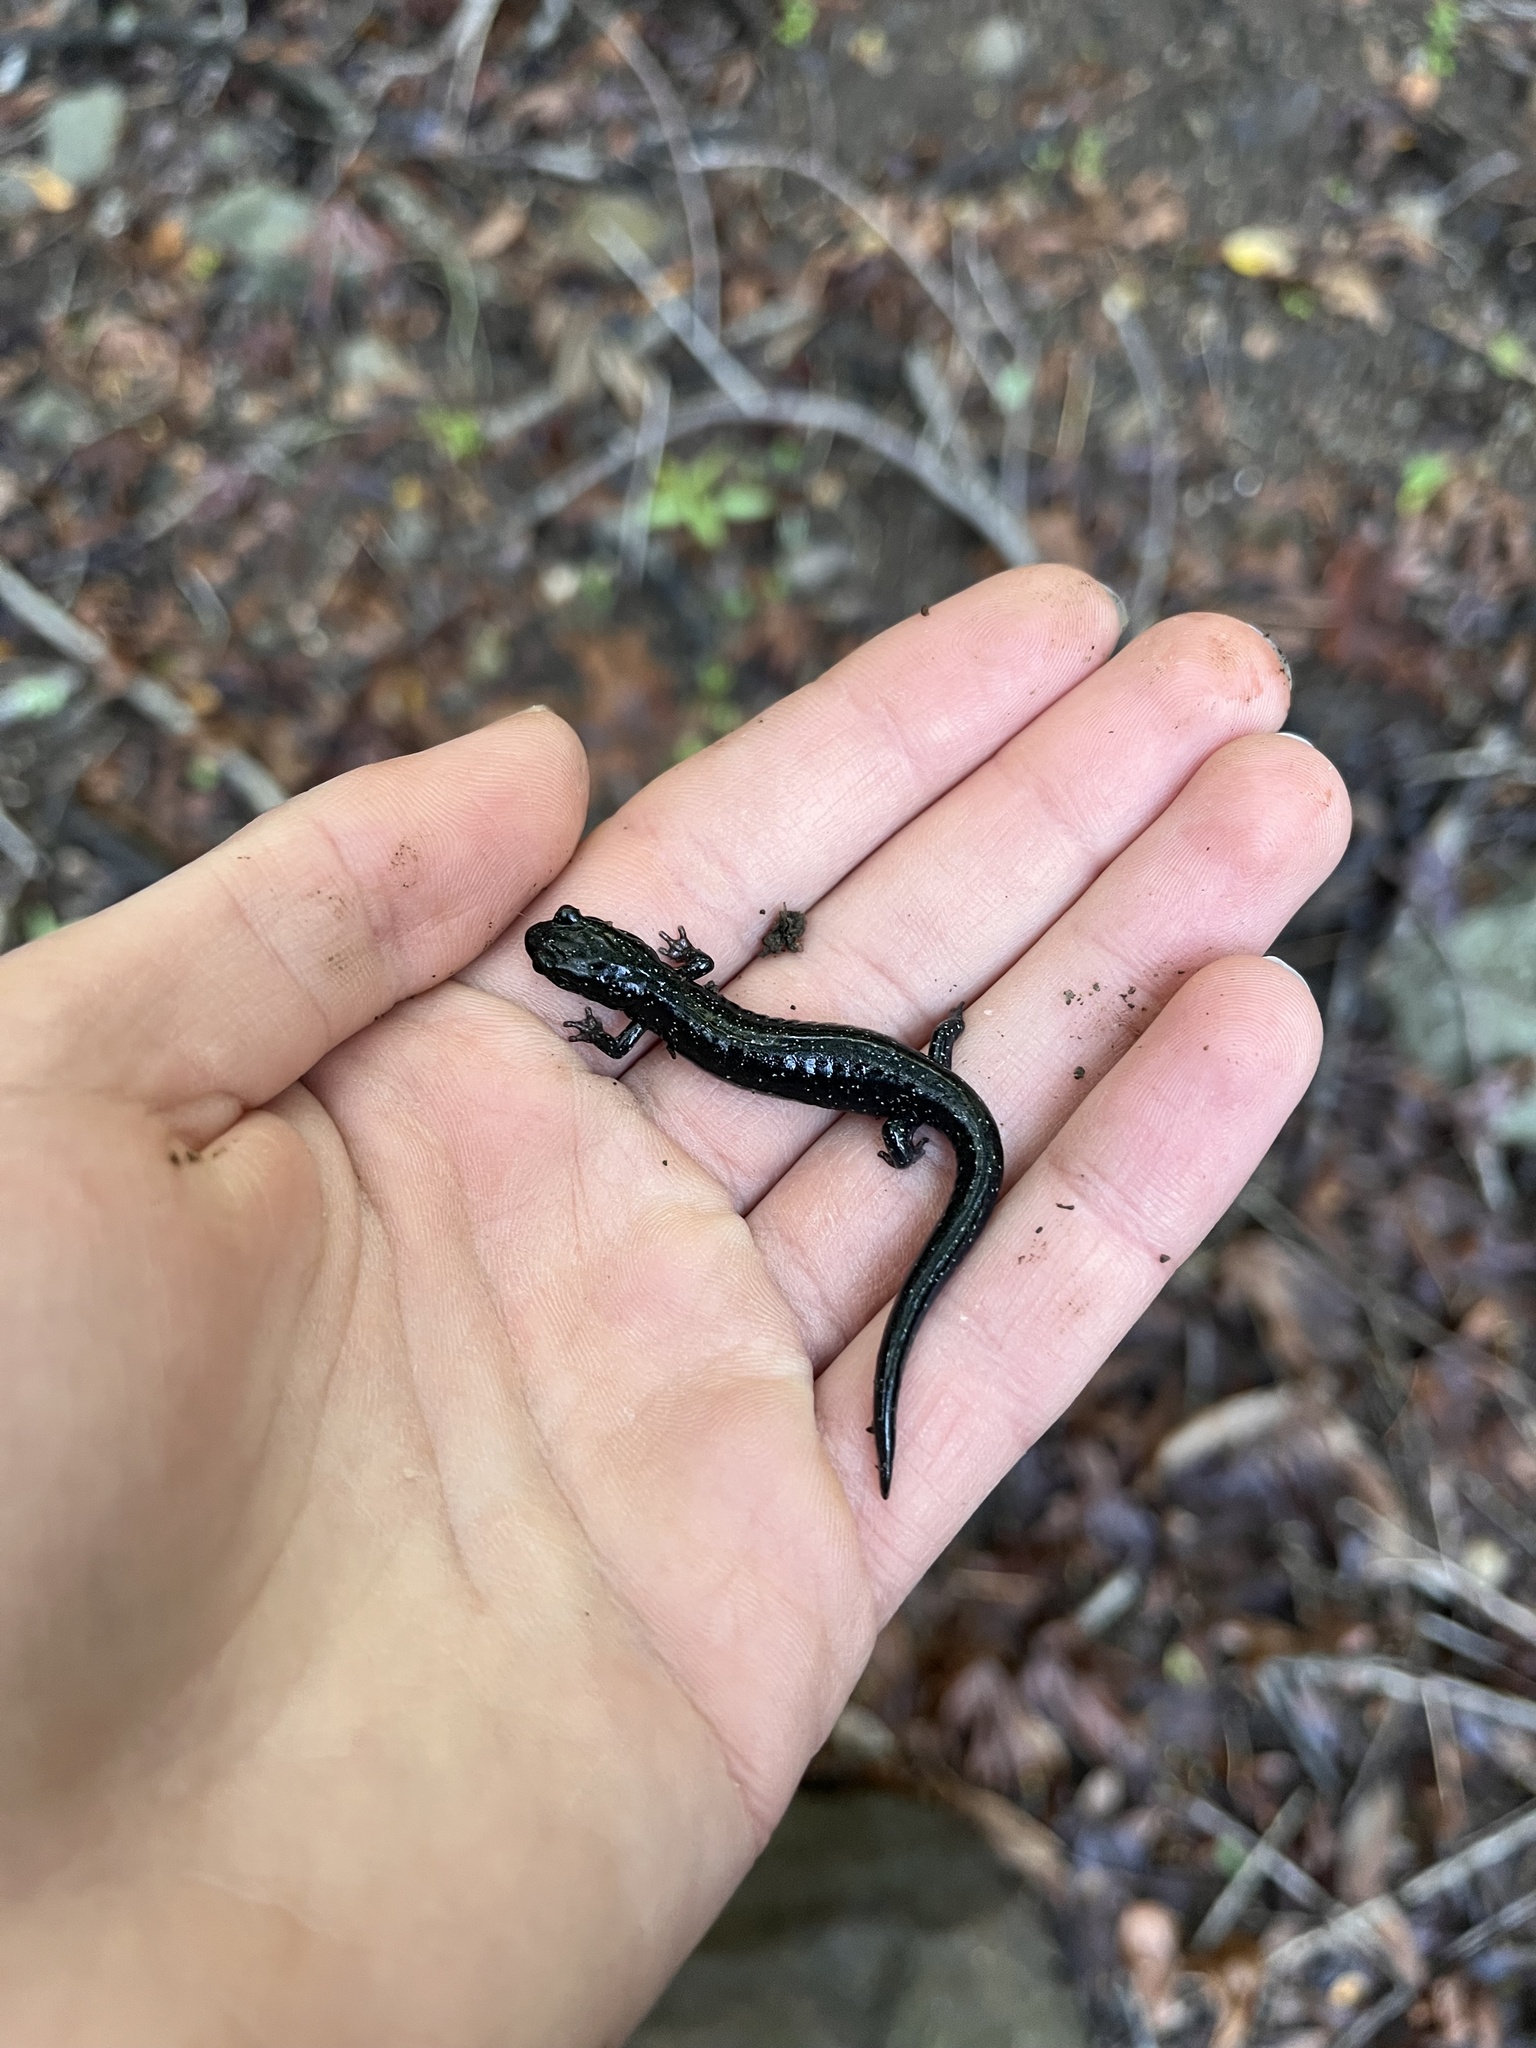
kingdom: Animalia
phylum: Chordata
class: Amphibia
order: Caudata
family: Plethodontidae
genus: Aneides
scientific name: Aneides niger
